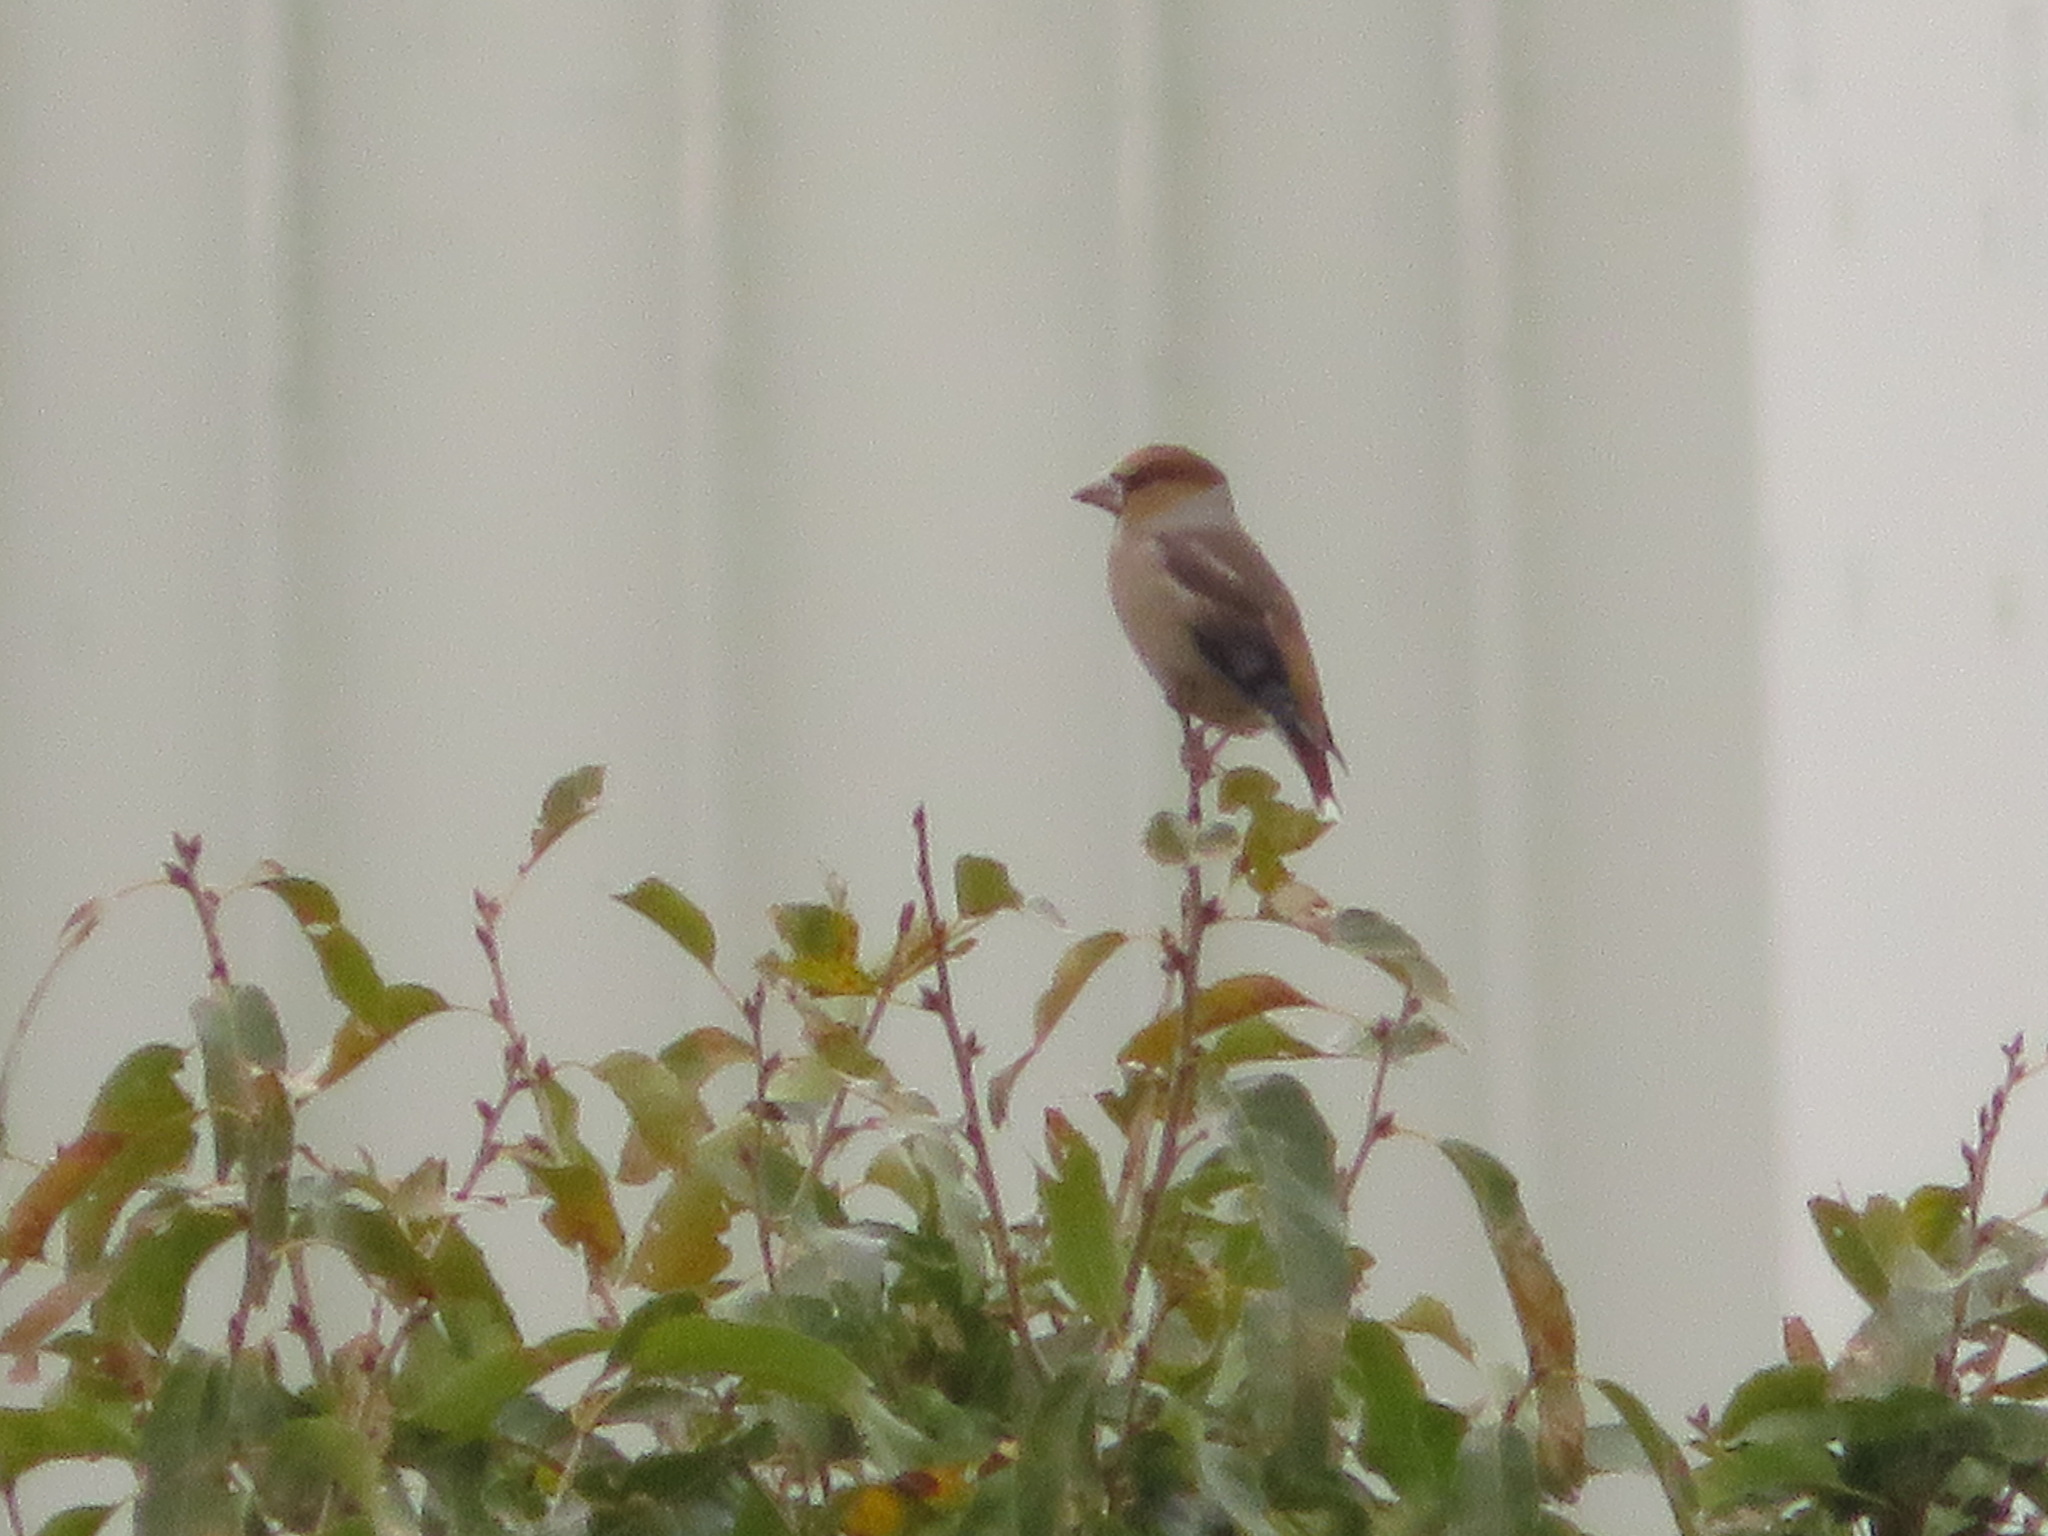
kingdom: Animalia
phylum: Chordata
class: Aves
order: Passeriformes
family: Fringillidae
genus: Coccothraustes
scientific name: Coccothraustes coccothraustes
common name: Hawfinch
